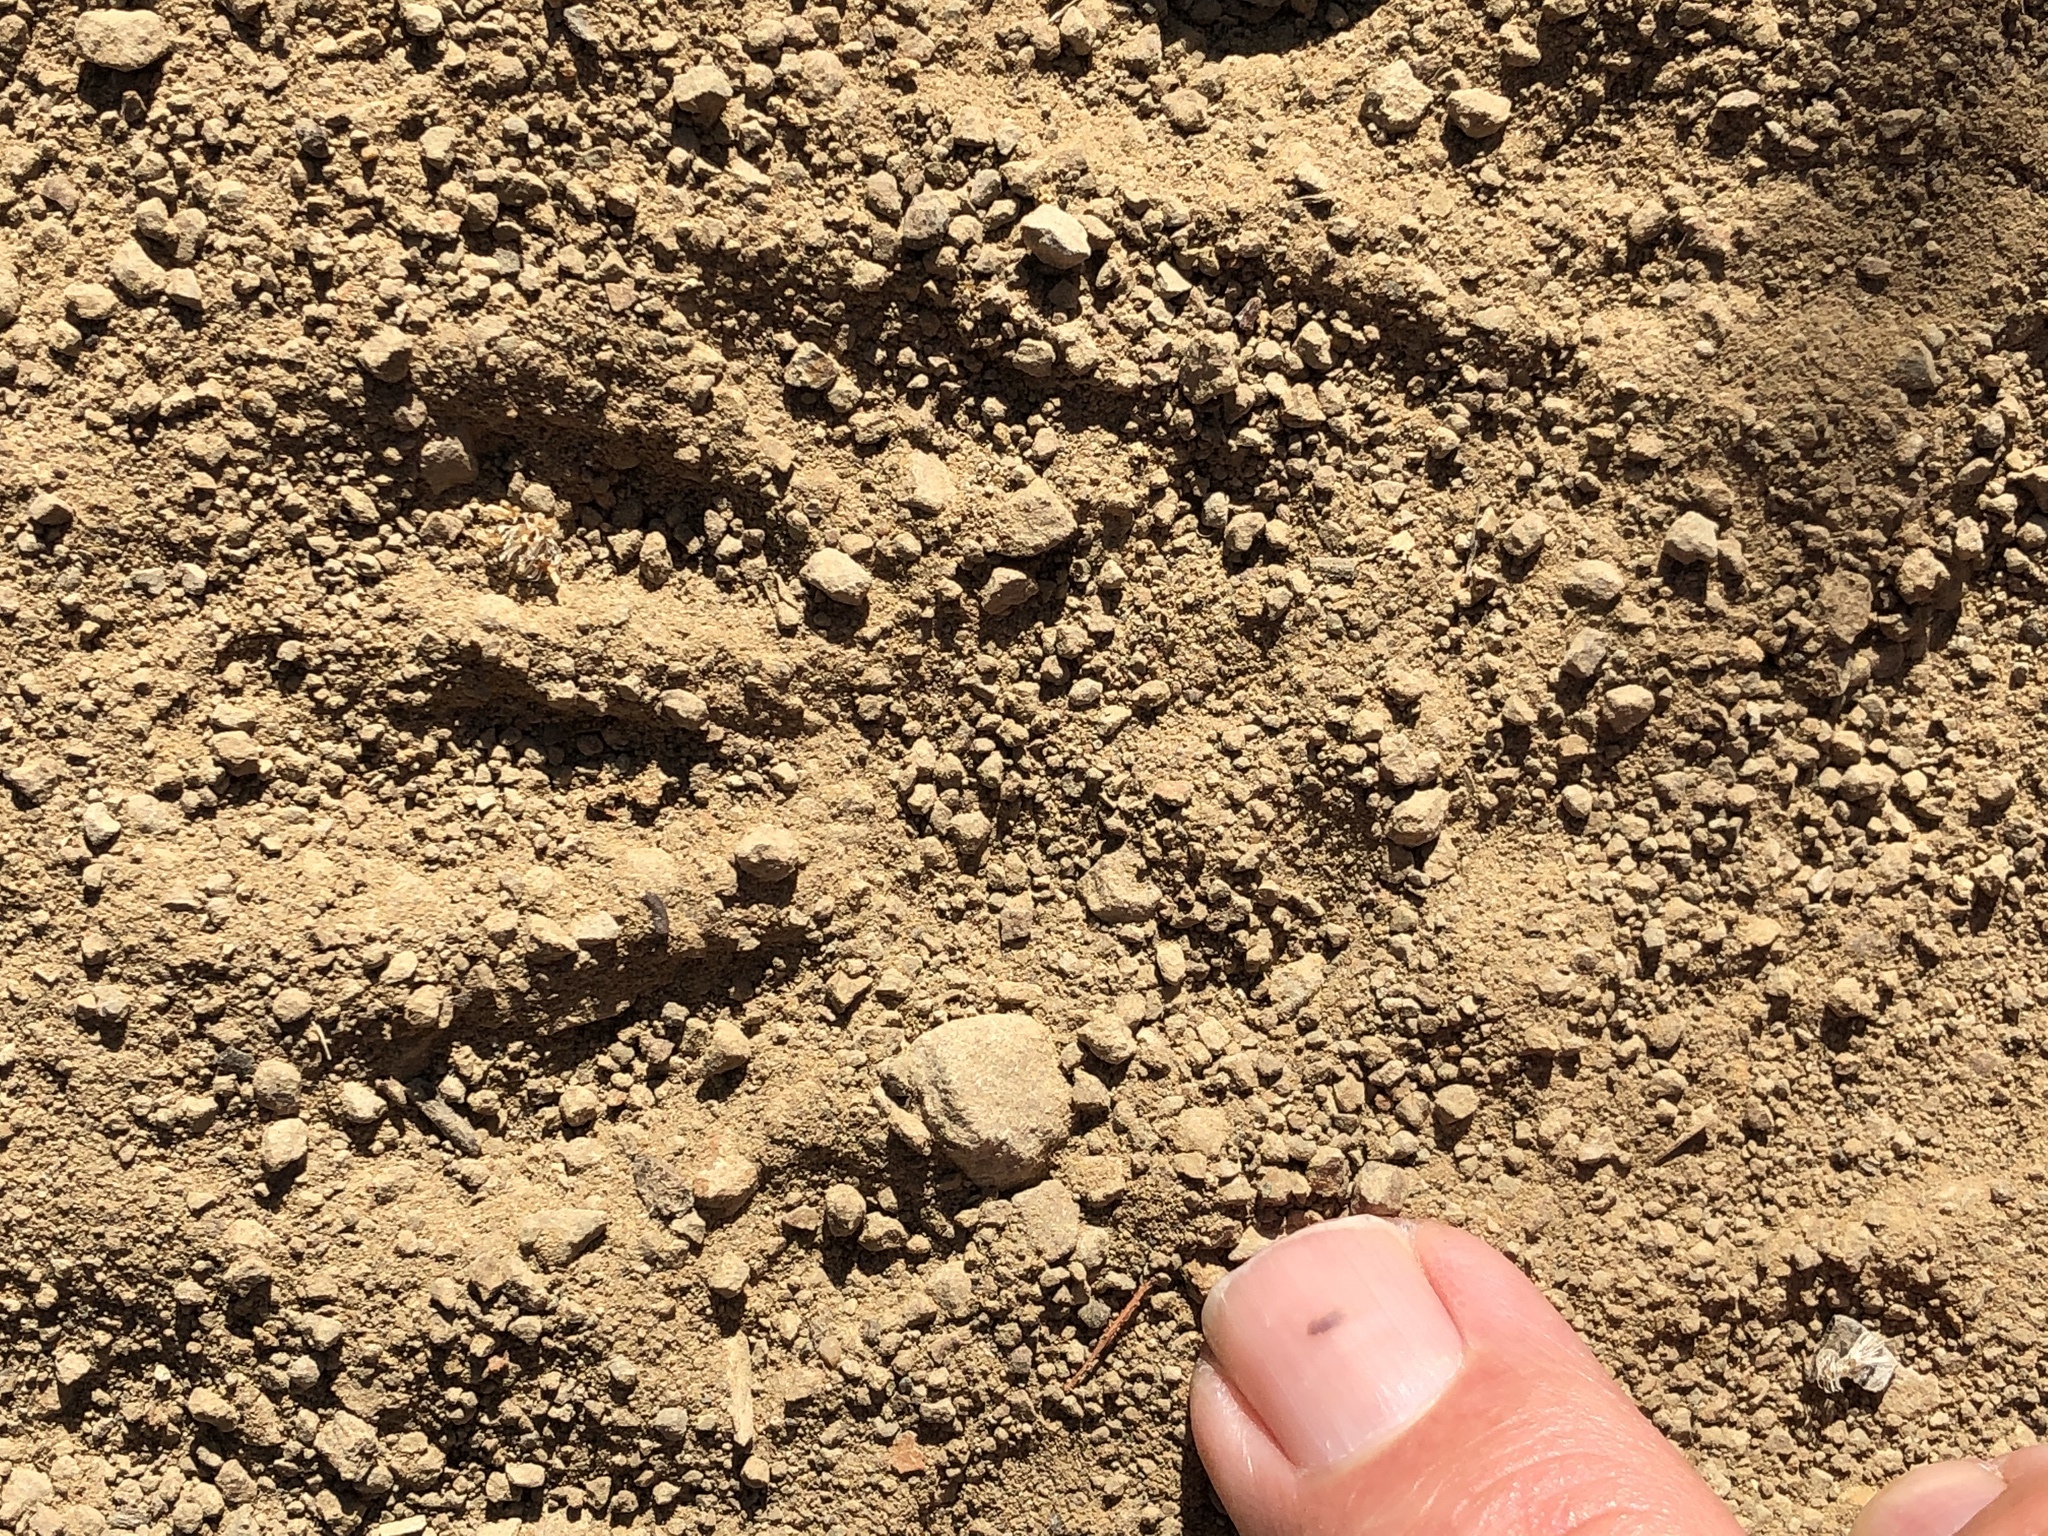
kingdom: Animalia
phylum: Chordata
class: Mammalia
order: Carnivora
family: Procyonidae
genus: Procyon
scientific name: Procyon lotor
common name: Raccoon
